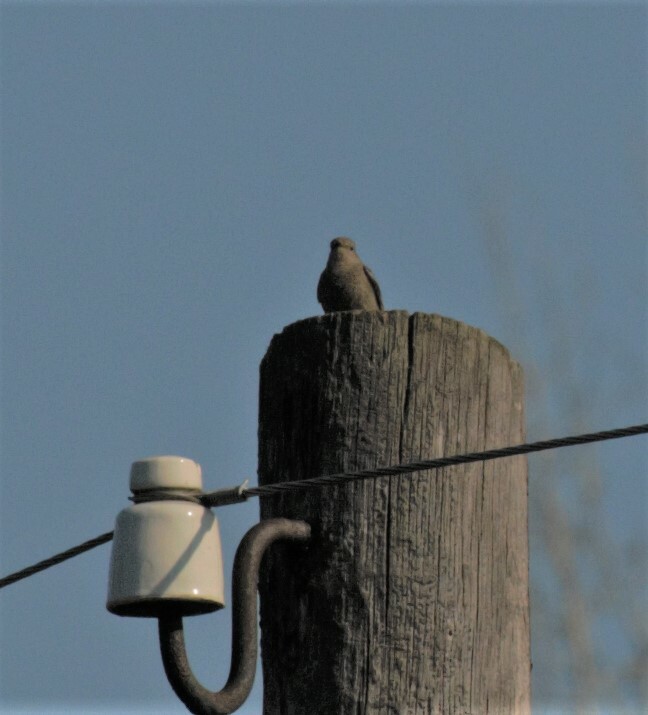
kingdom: Animalia
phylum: Chordata
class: Aves
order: Passeriformes
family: Muscicapidae
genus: Phoenicurus
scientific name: Phoenicurus ochruros
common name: Black redstart
